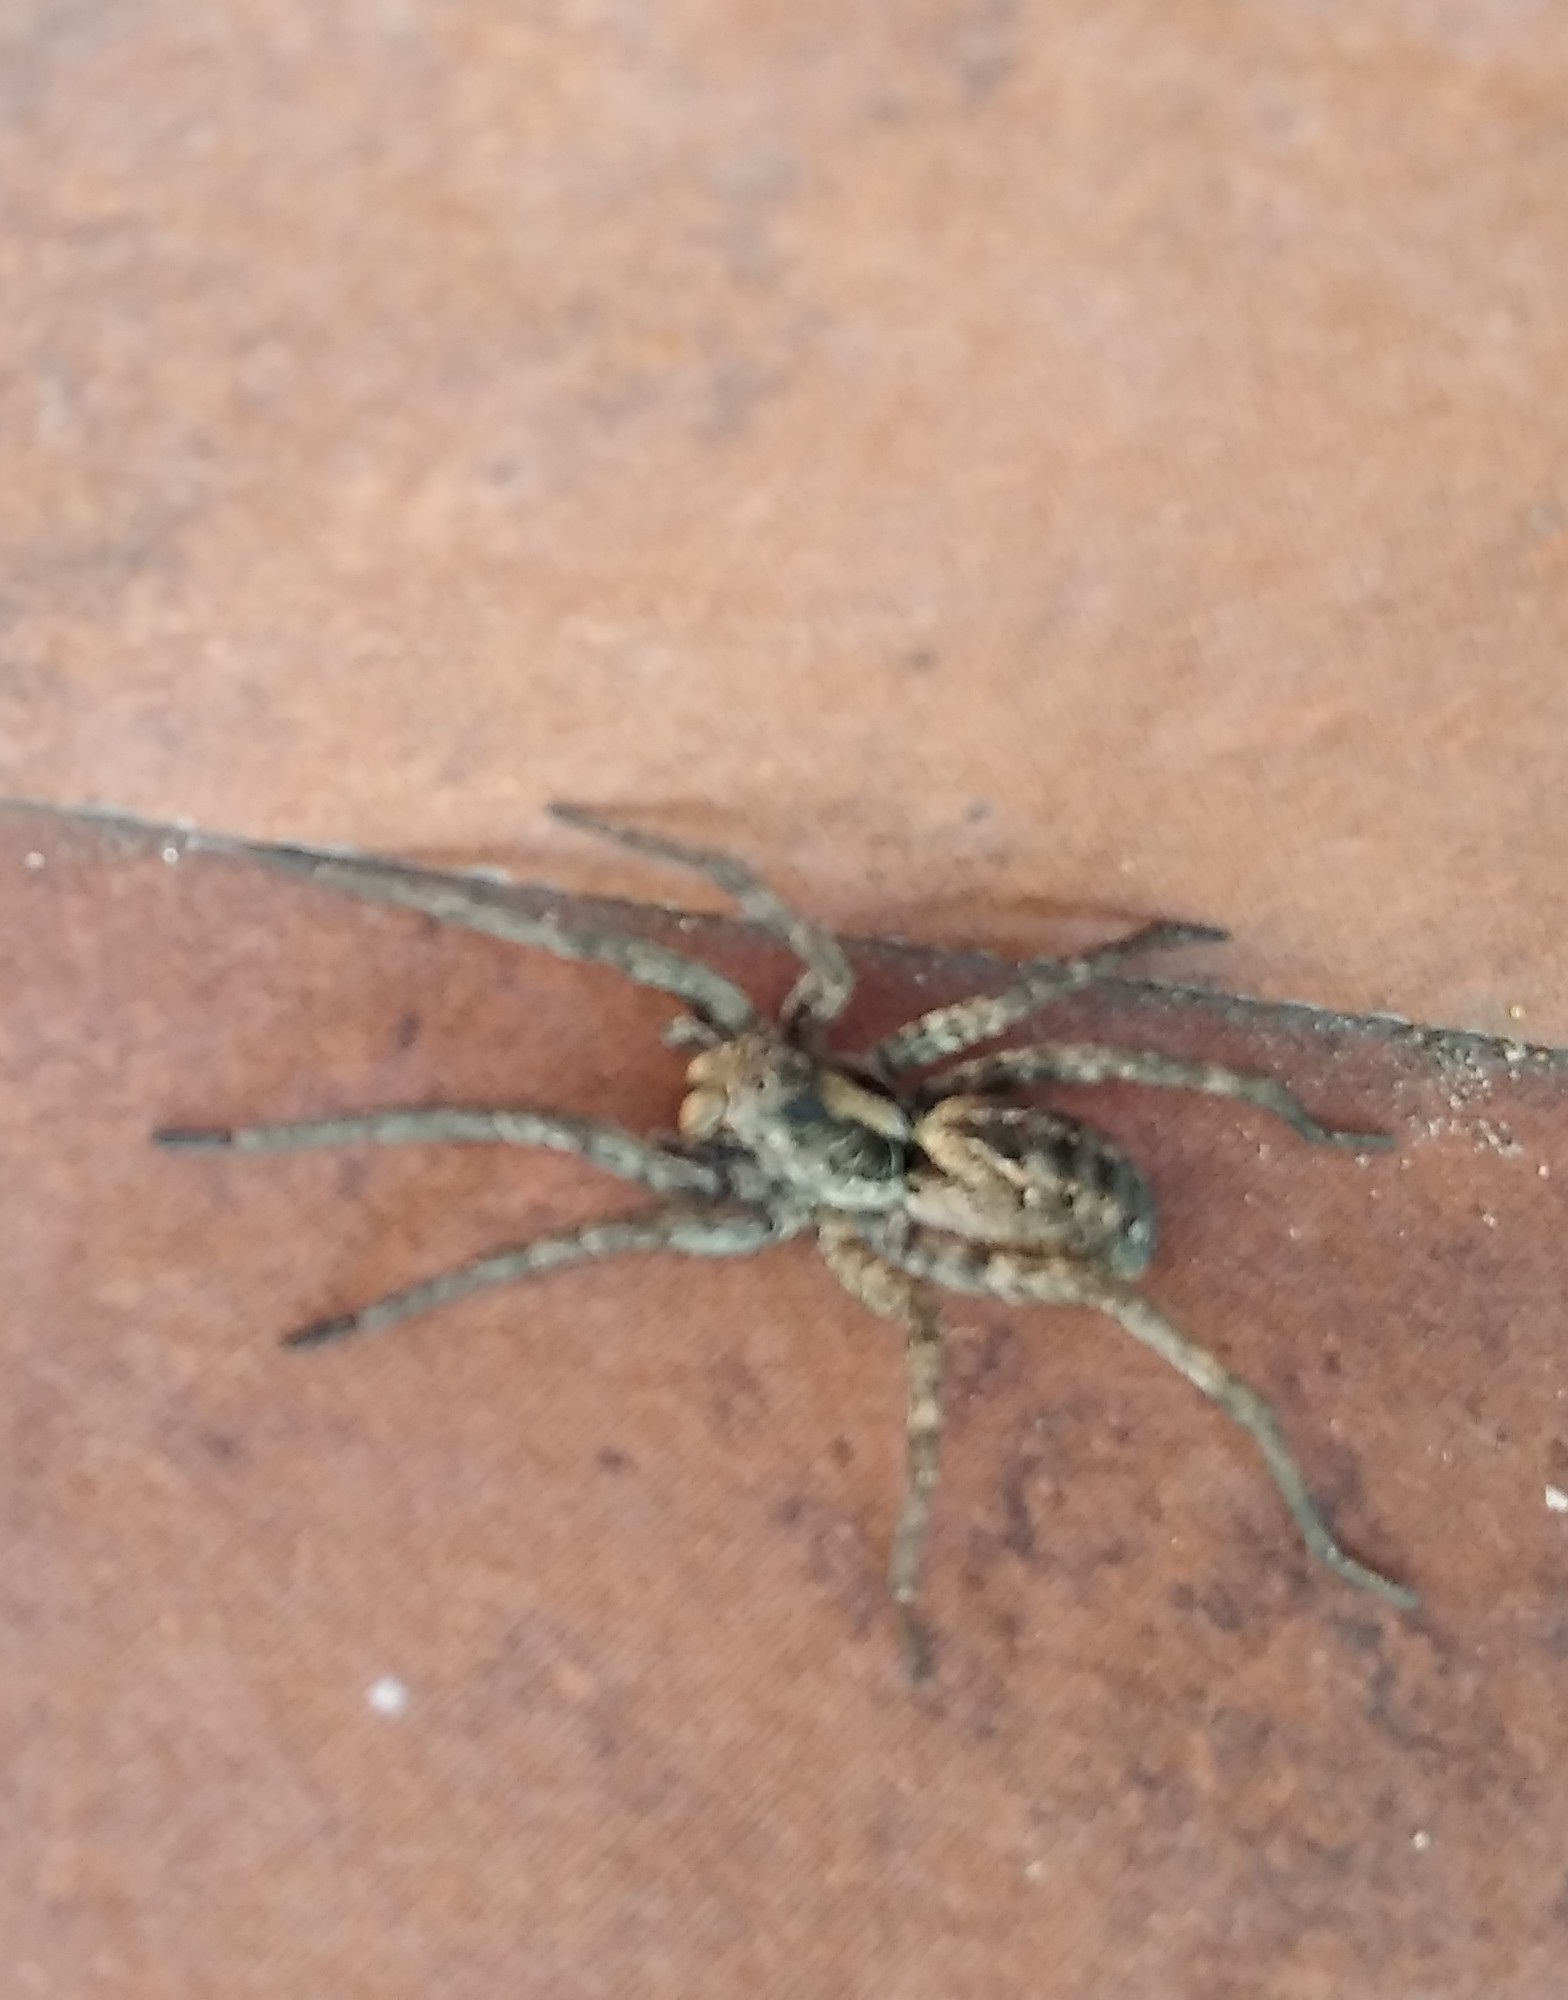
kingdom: Animalia
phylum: Arthropoda
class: Arachnida
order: Araneae
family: Lycosidae
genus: Schizocosa
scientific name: Schizocosa malitiosa
